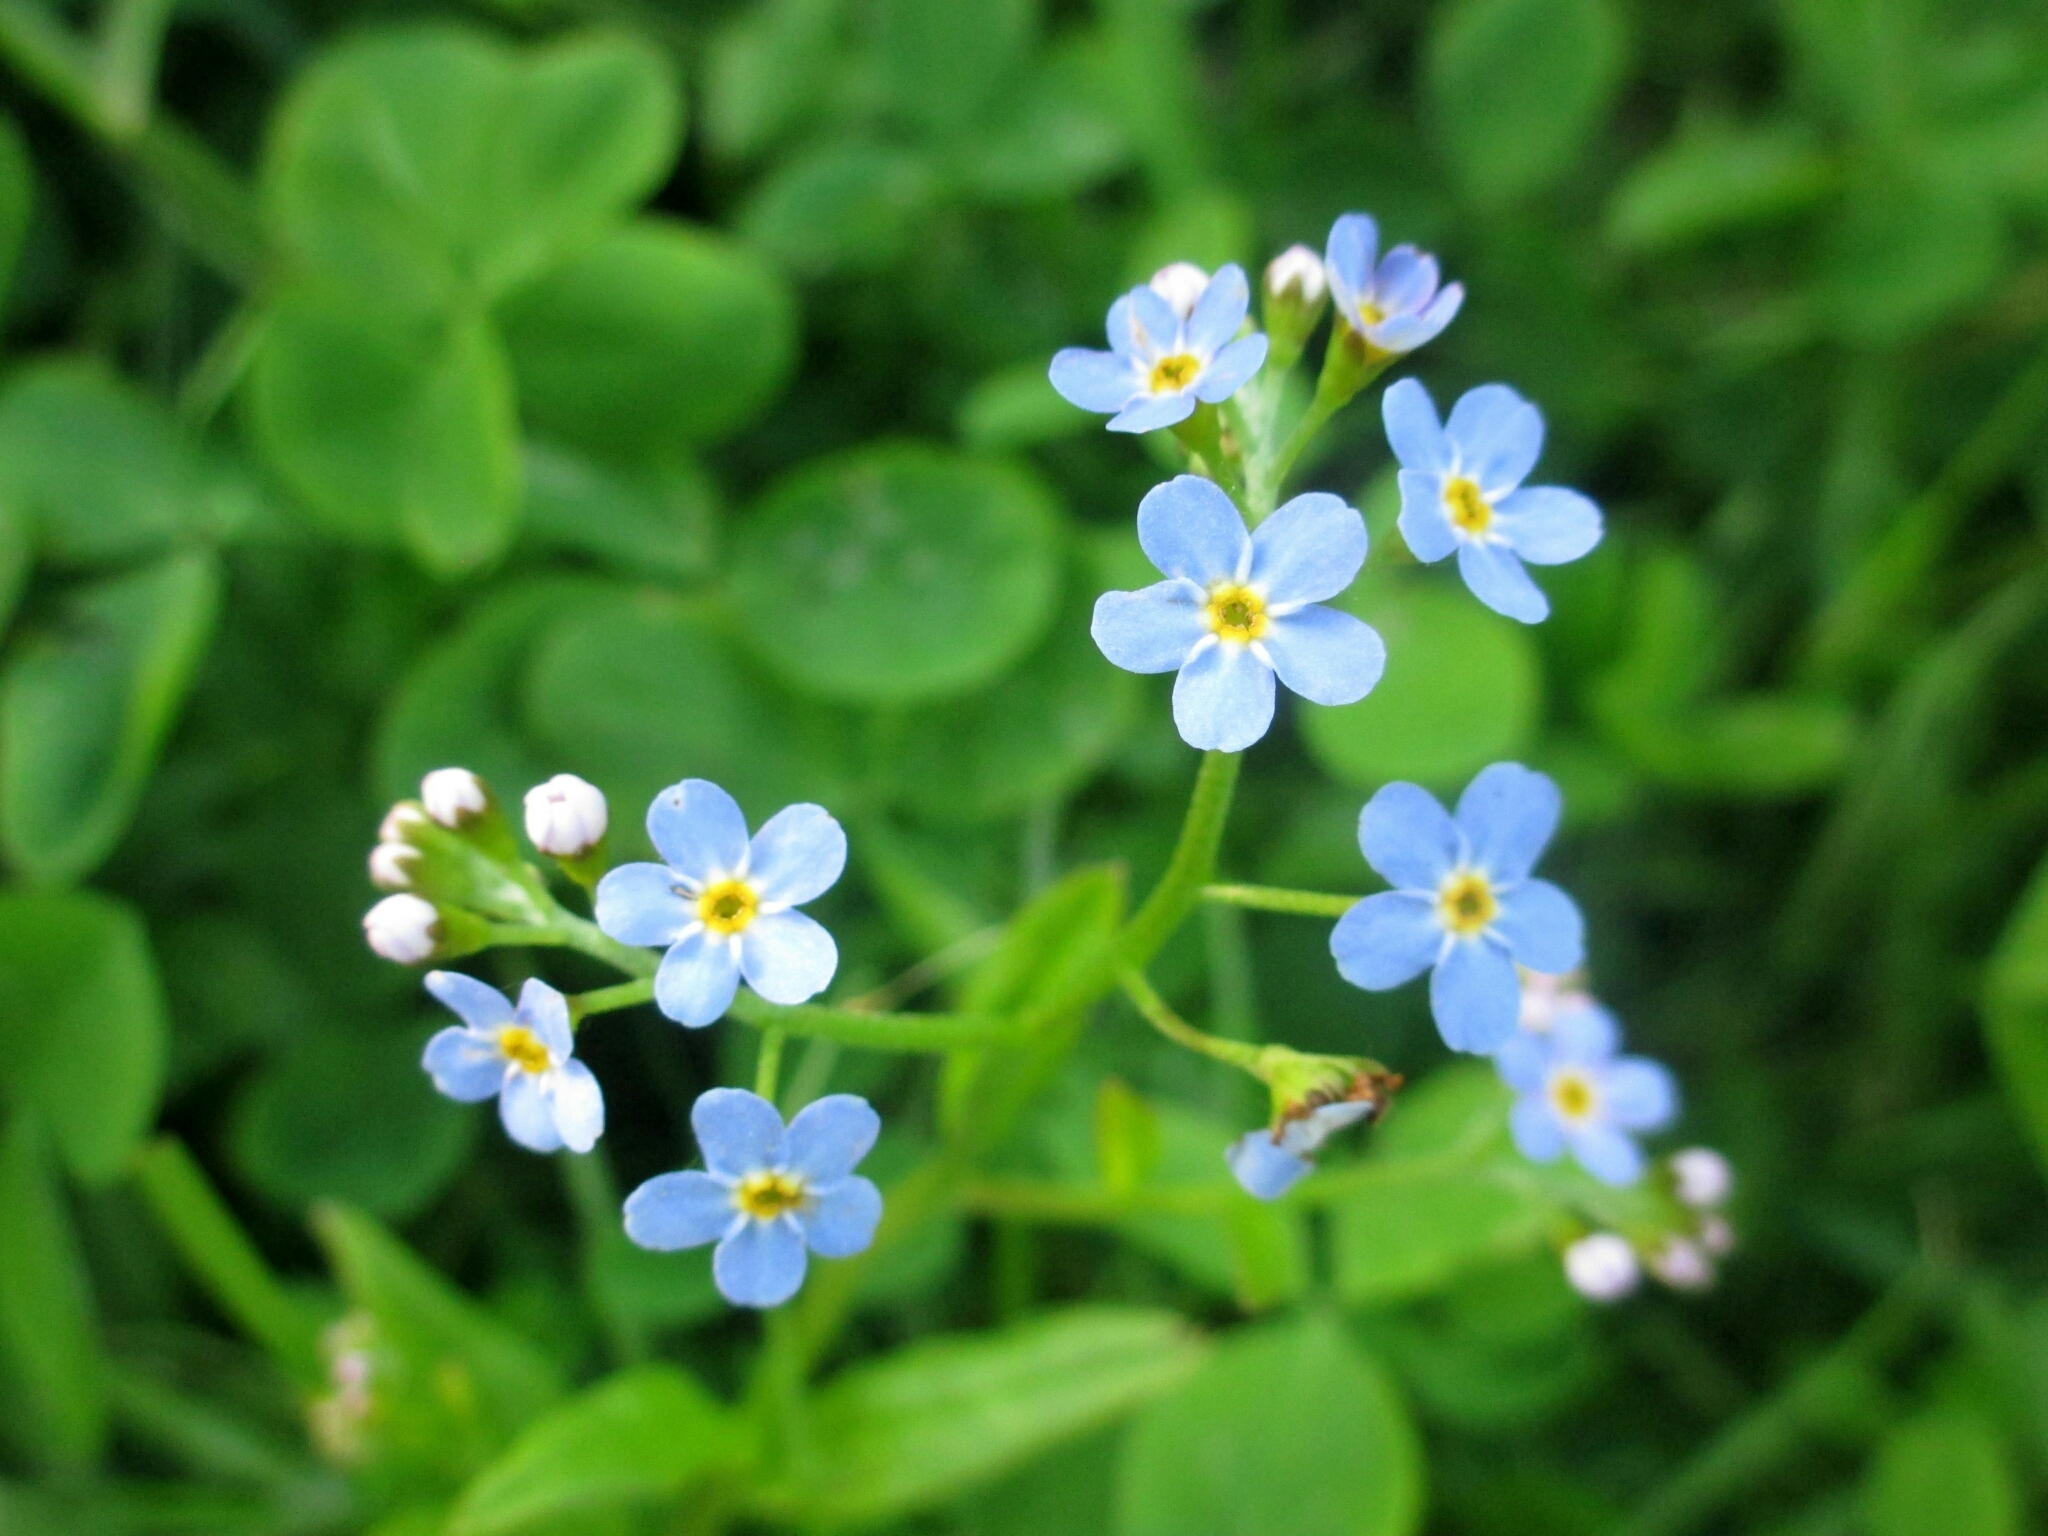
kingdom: Plantae
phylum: Tracheophyta
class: Magnoliopsida
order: Boraginales
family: Boraginaceae
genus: Myosotis
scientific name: Myosotis scorpioides
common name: Water forget-me-not
